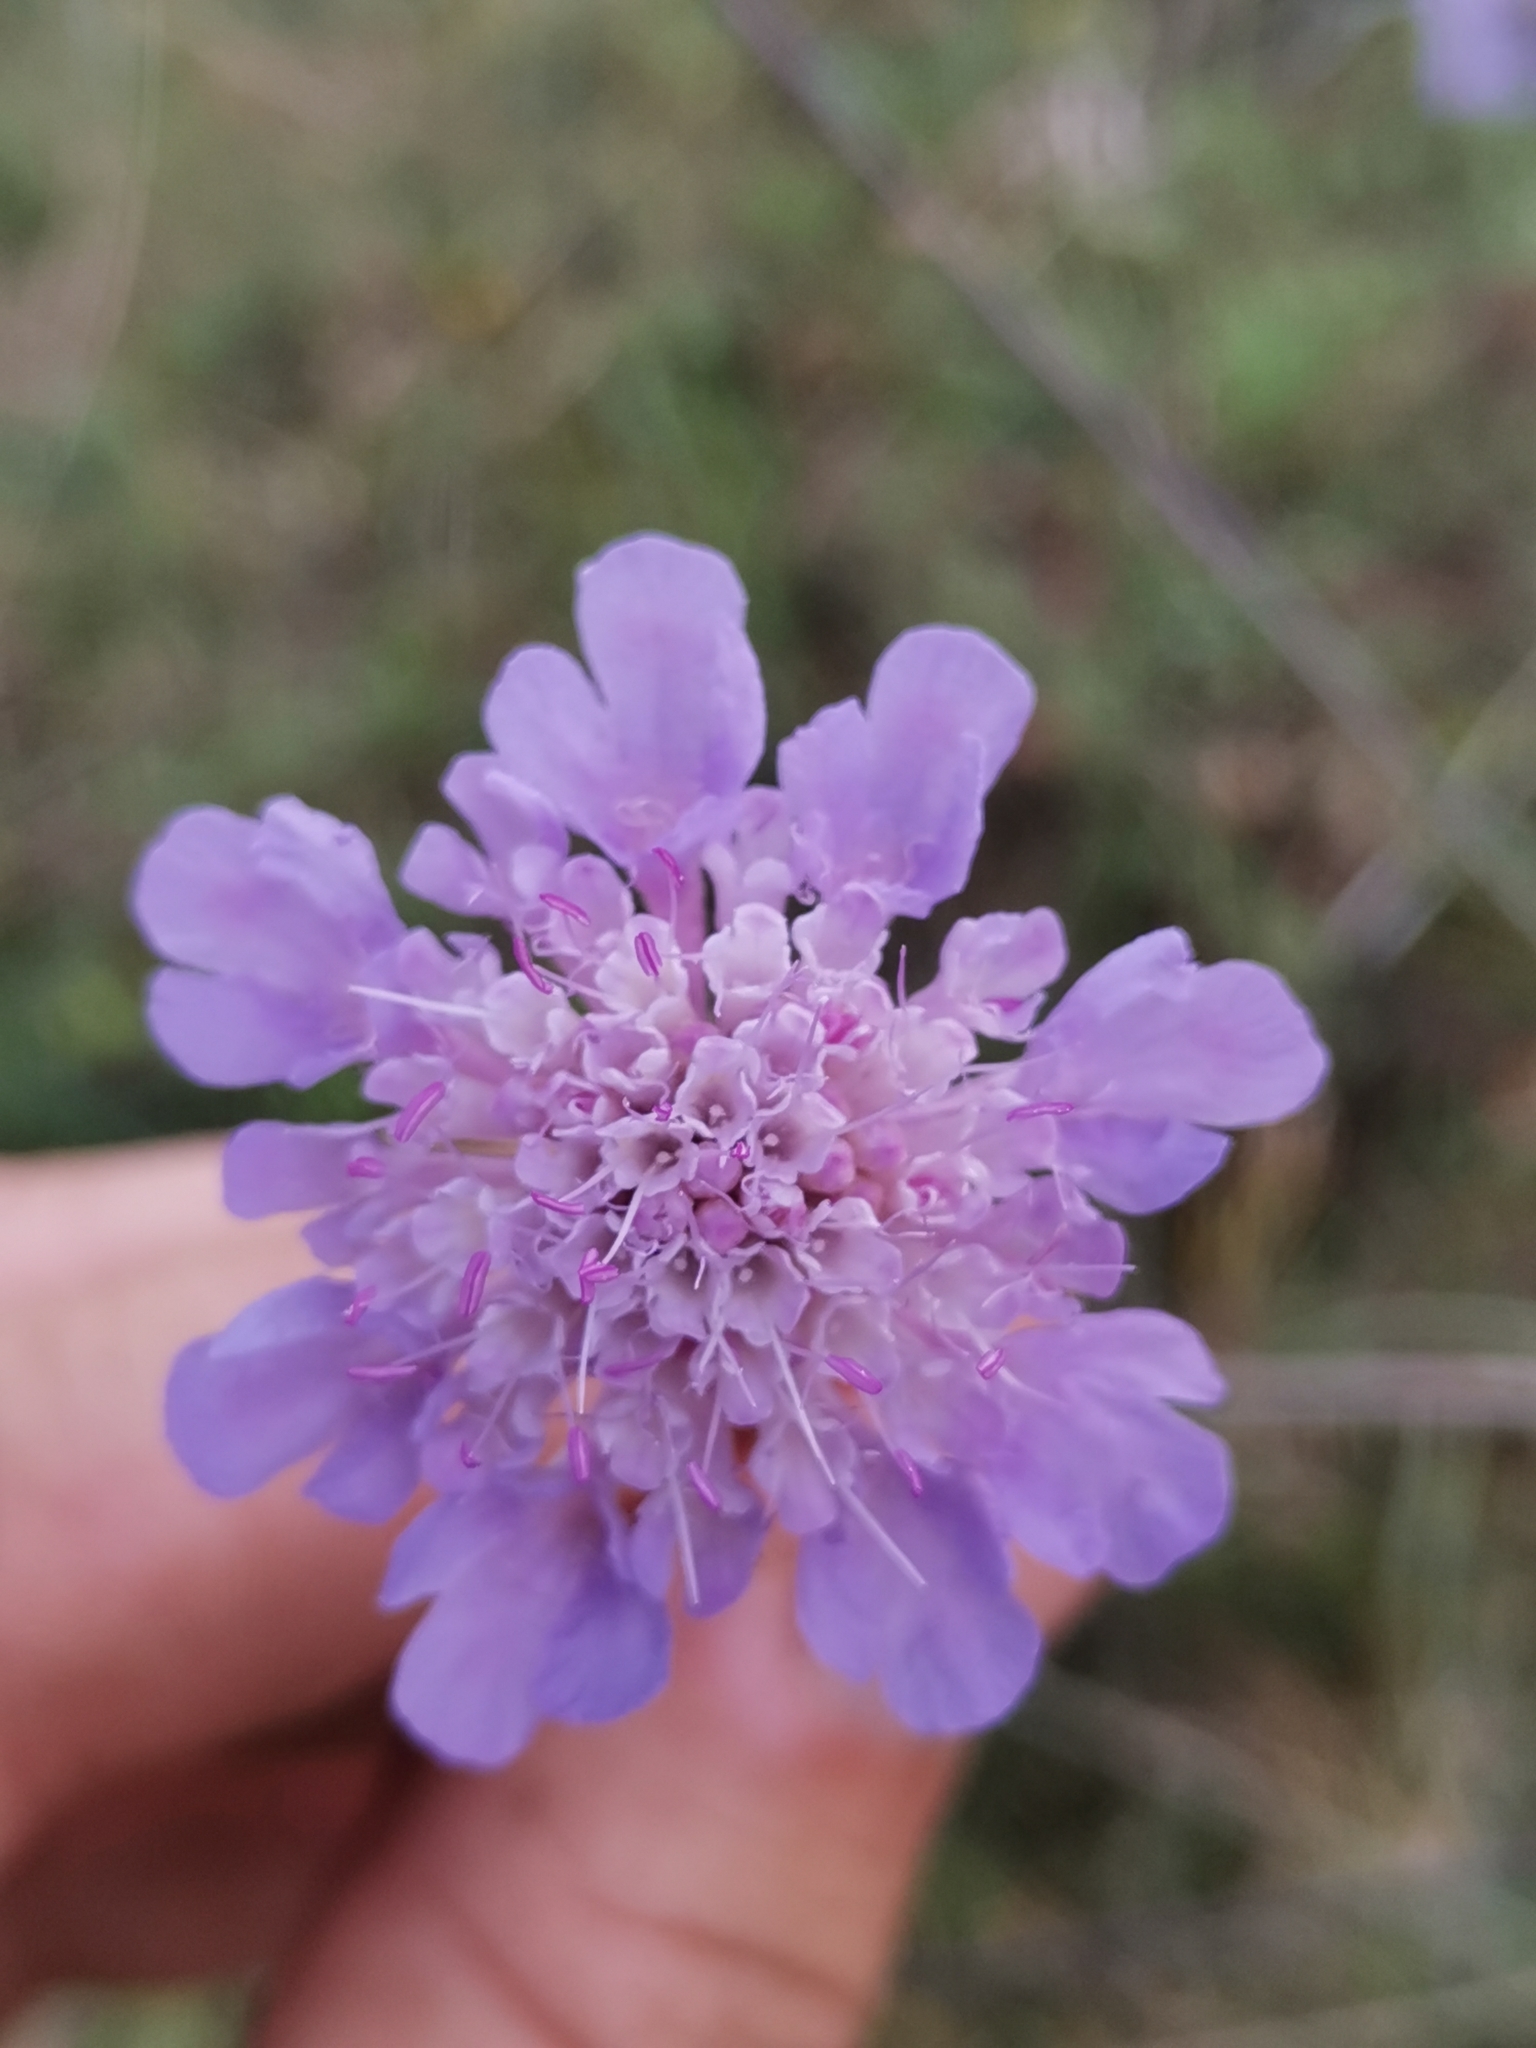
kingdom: Plantae
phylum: Tracheophyta
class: Magnoliopsida
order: Dipsacales
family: Caprifoliaceae
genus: Scabiosa
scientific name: Scabiosa columbaria
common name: Small scabious
